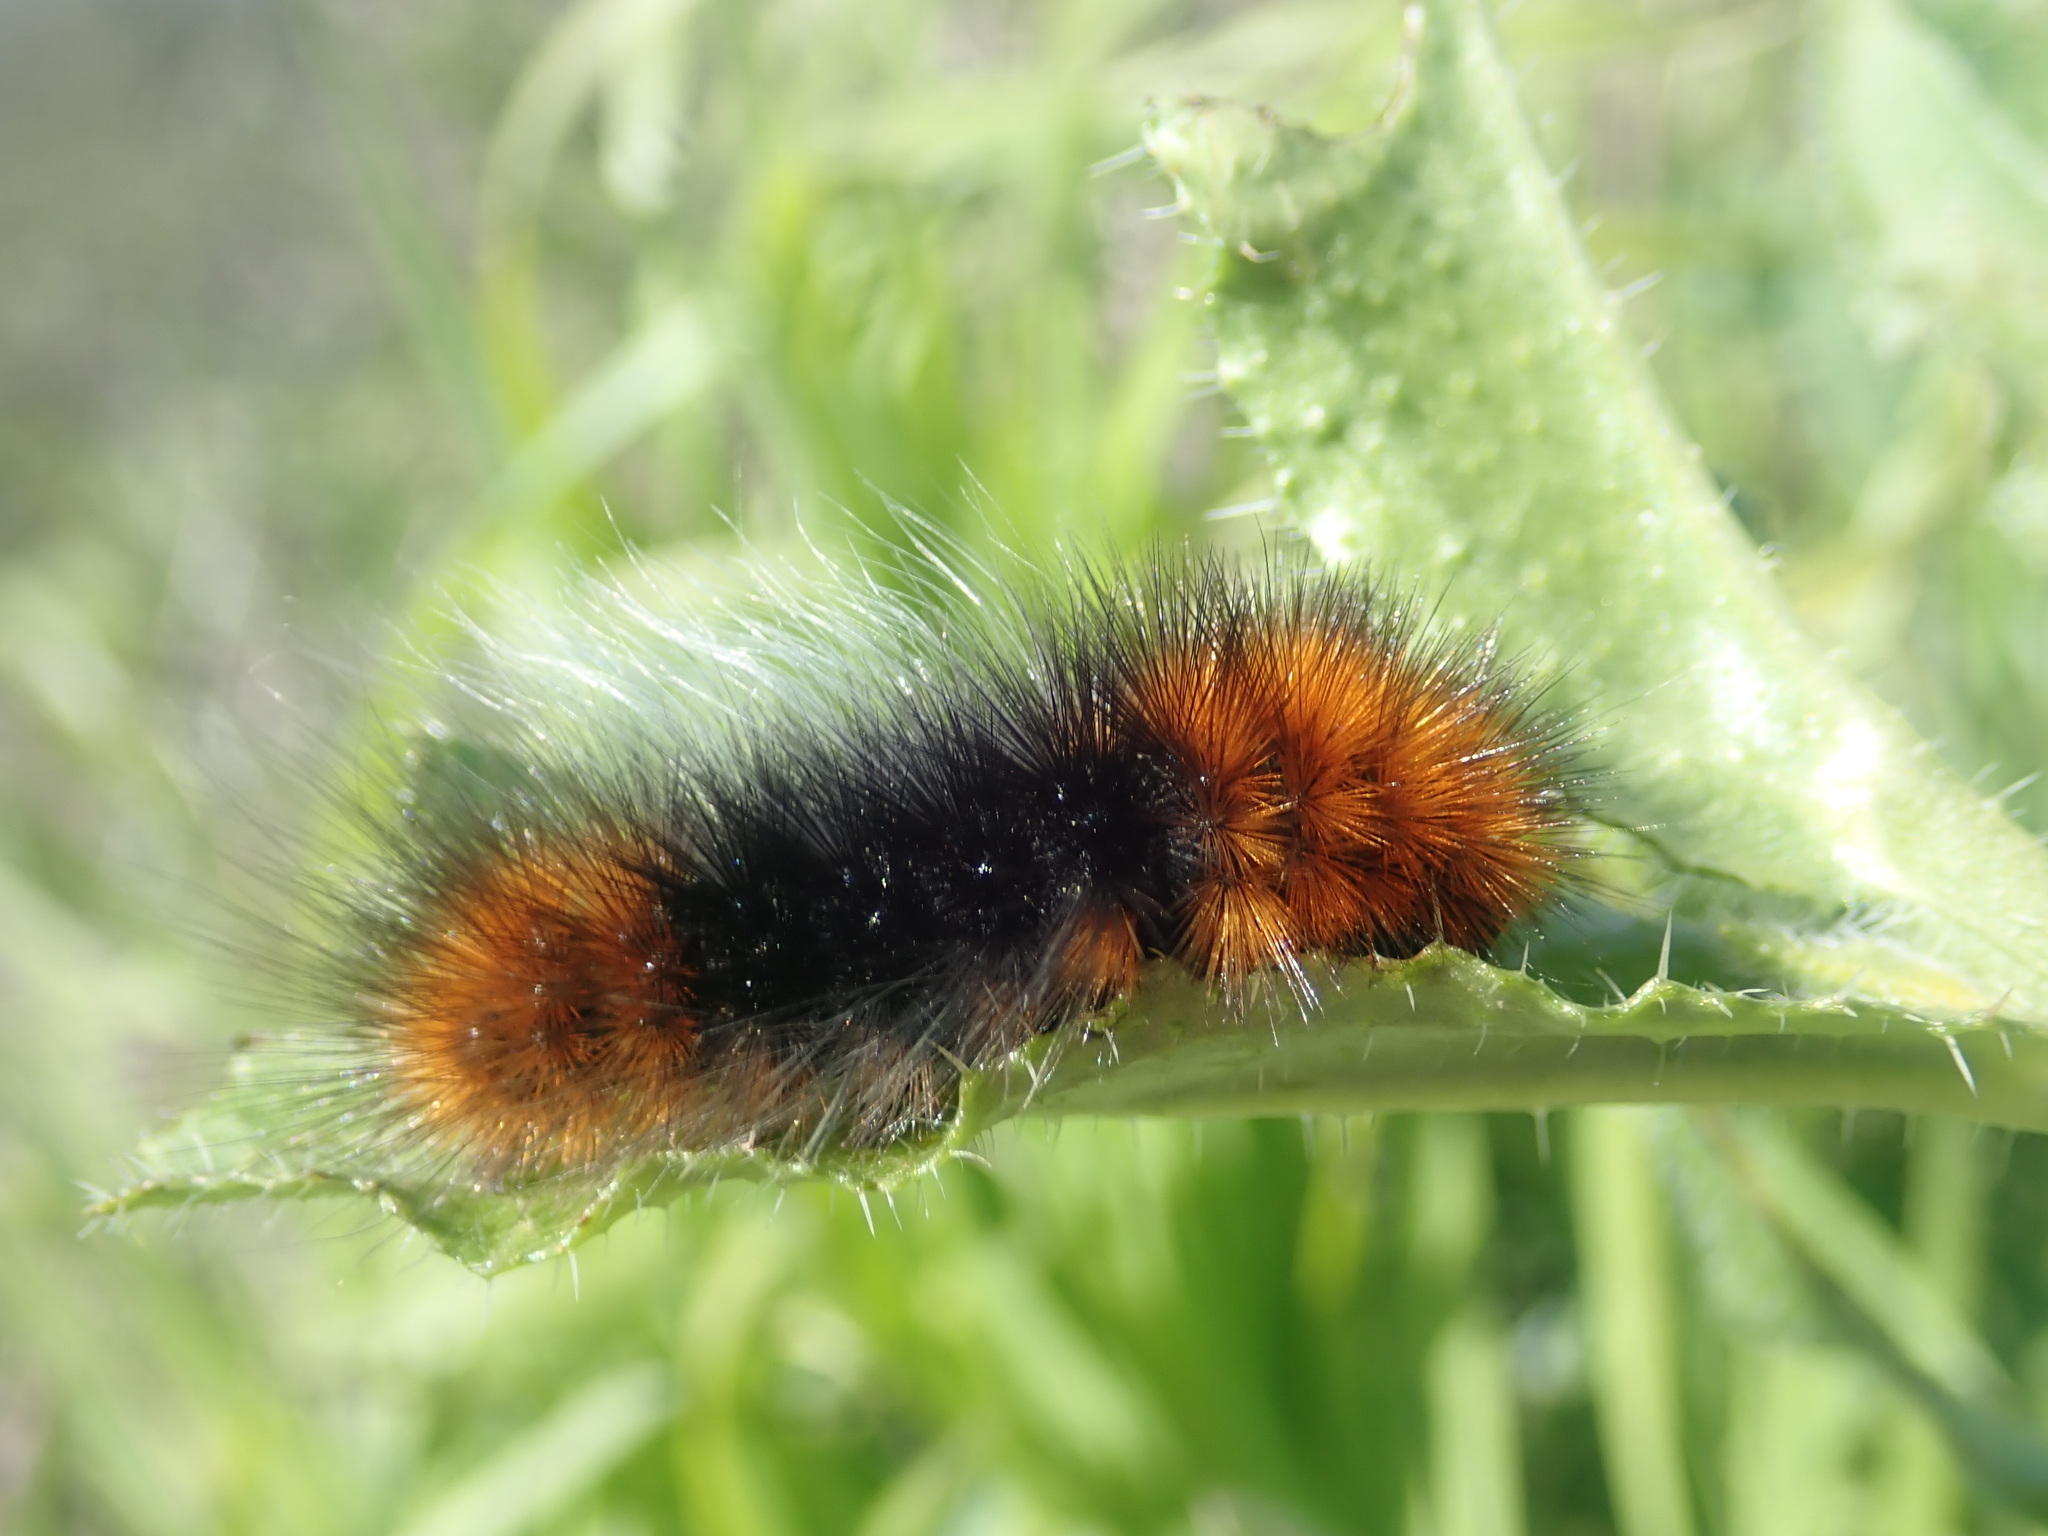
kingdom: Animalia
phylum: Arthropoda
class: Insecta
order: Lepidoptera
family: Erebidae
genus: Arctia
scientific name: Arctia tigrina
